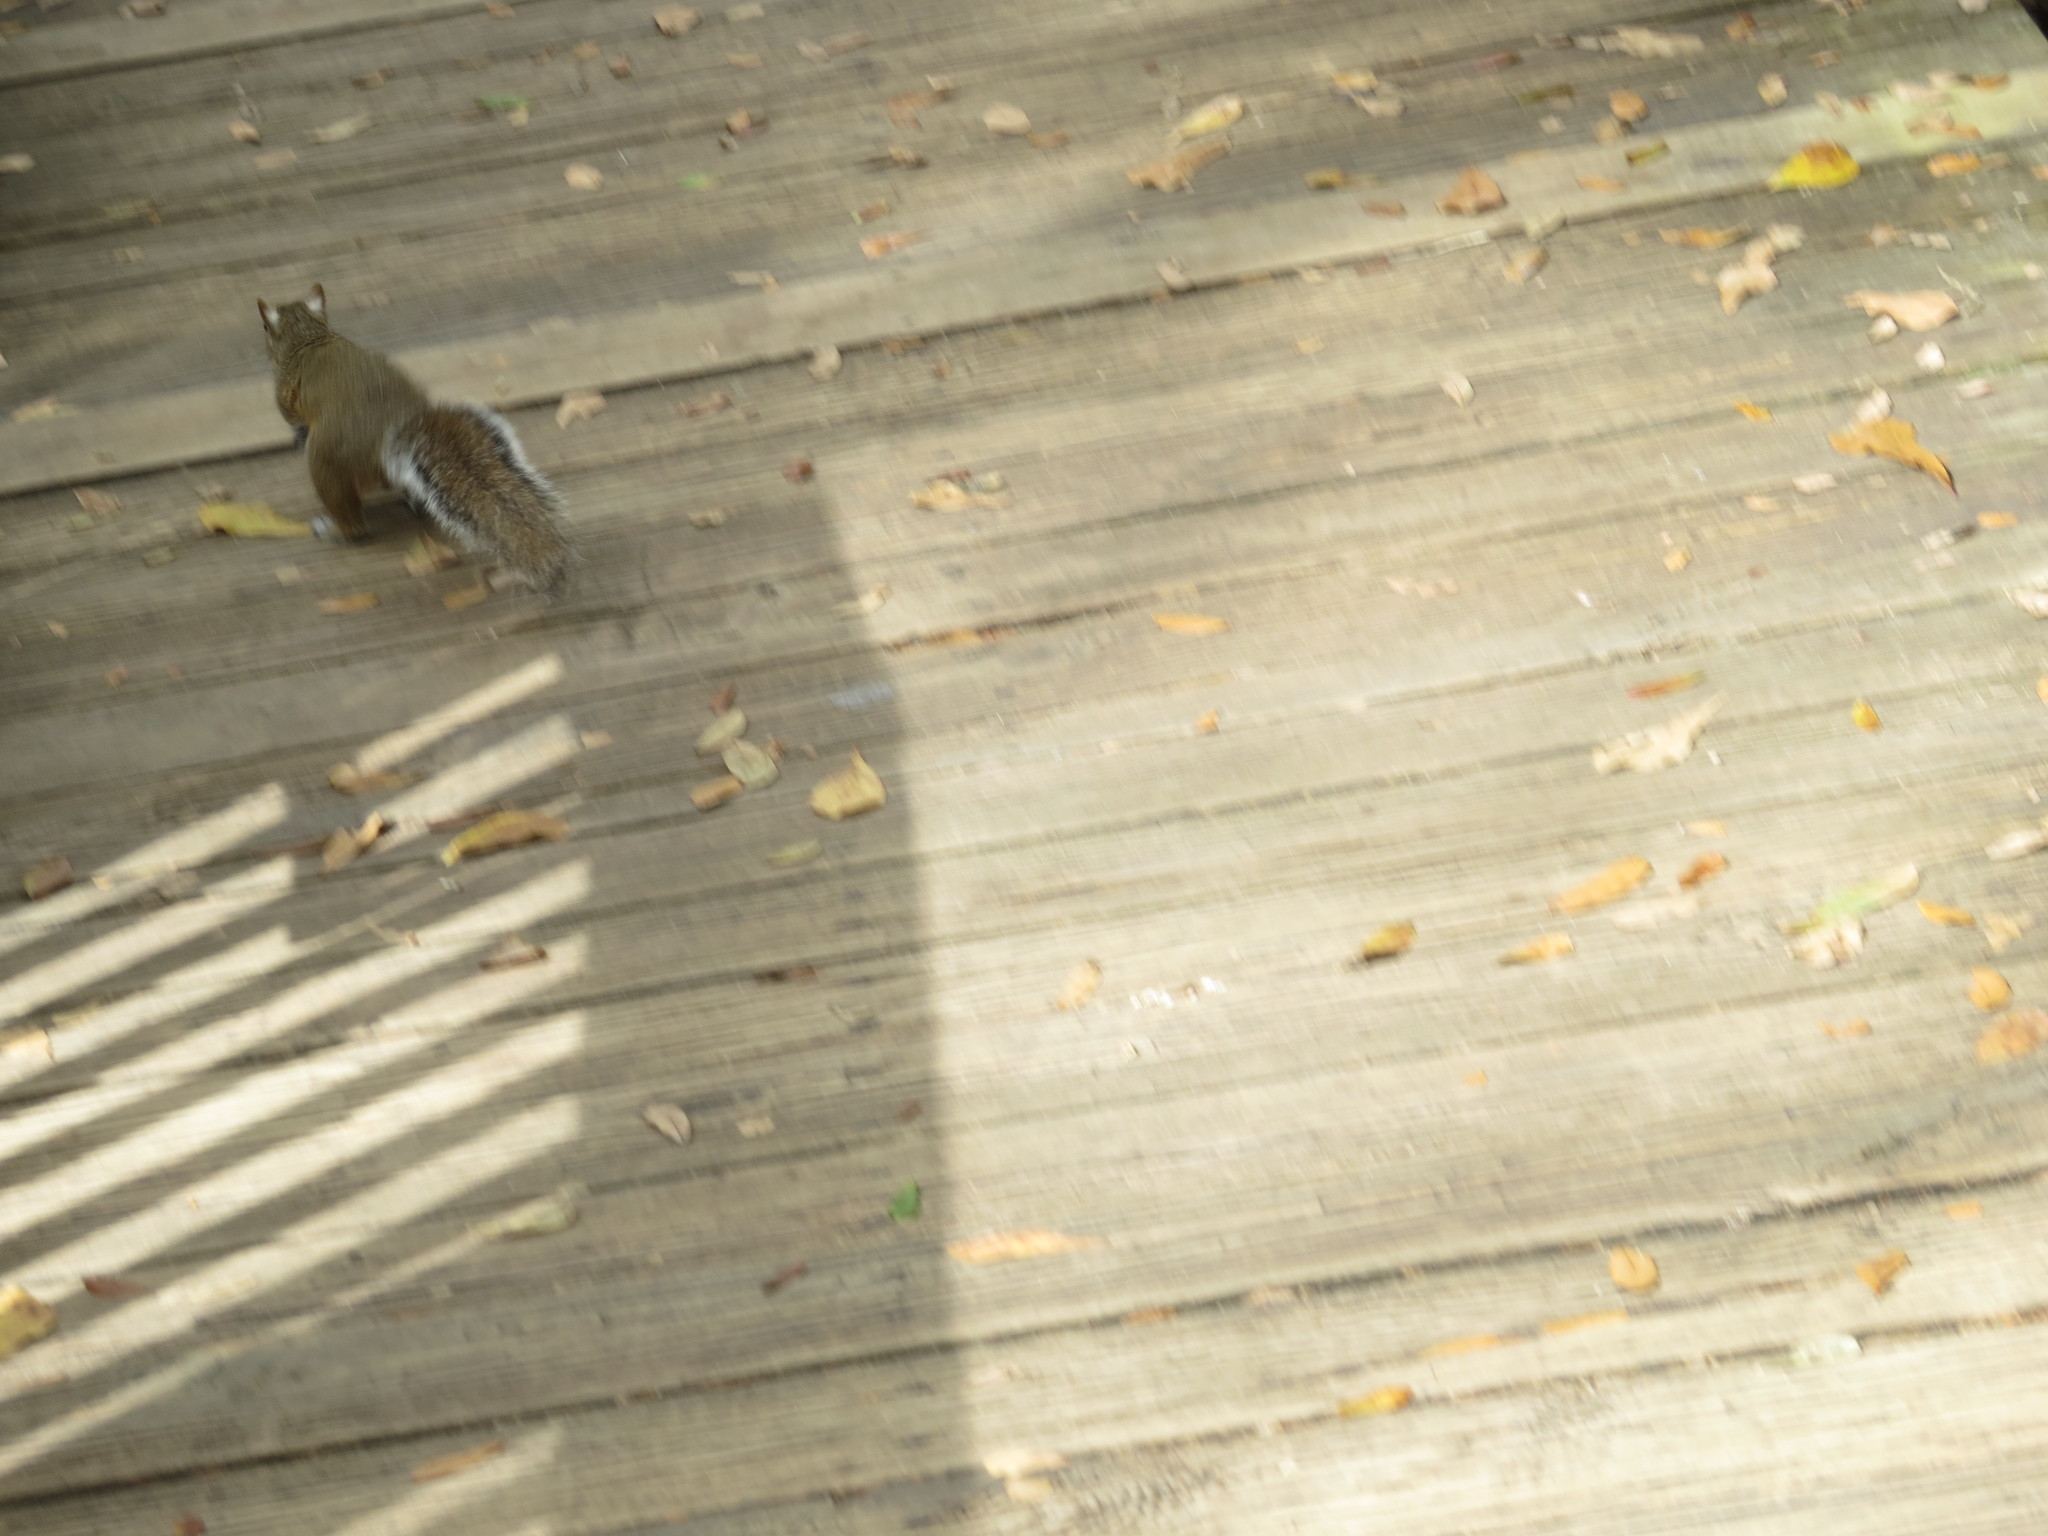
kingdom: Animalia
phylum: Chordata
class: Mammalia
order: Rodentia
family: Sciuridae
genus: Sciurus
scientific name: Sciurus carolinensis
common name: Eastern gray squirrel
